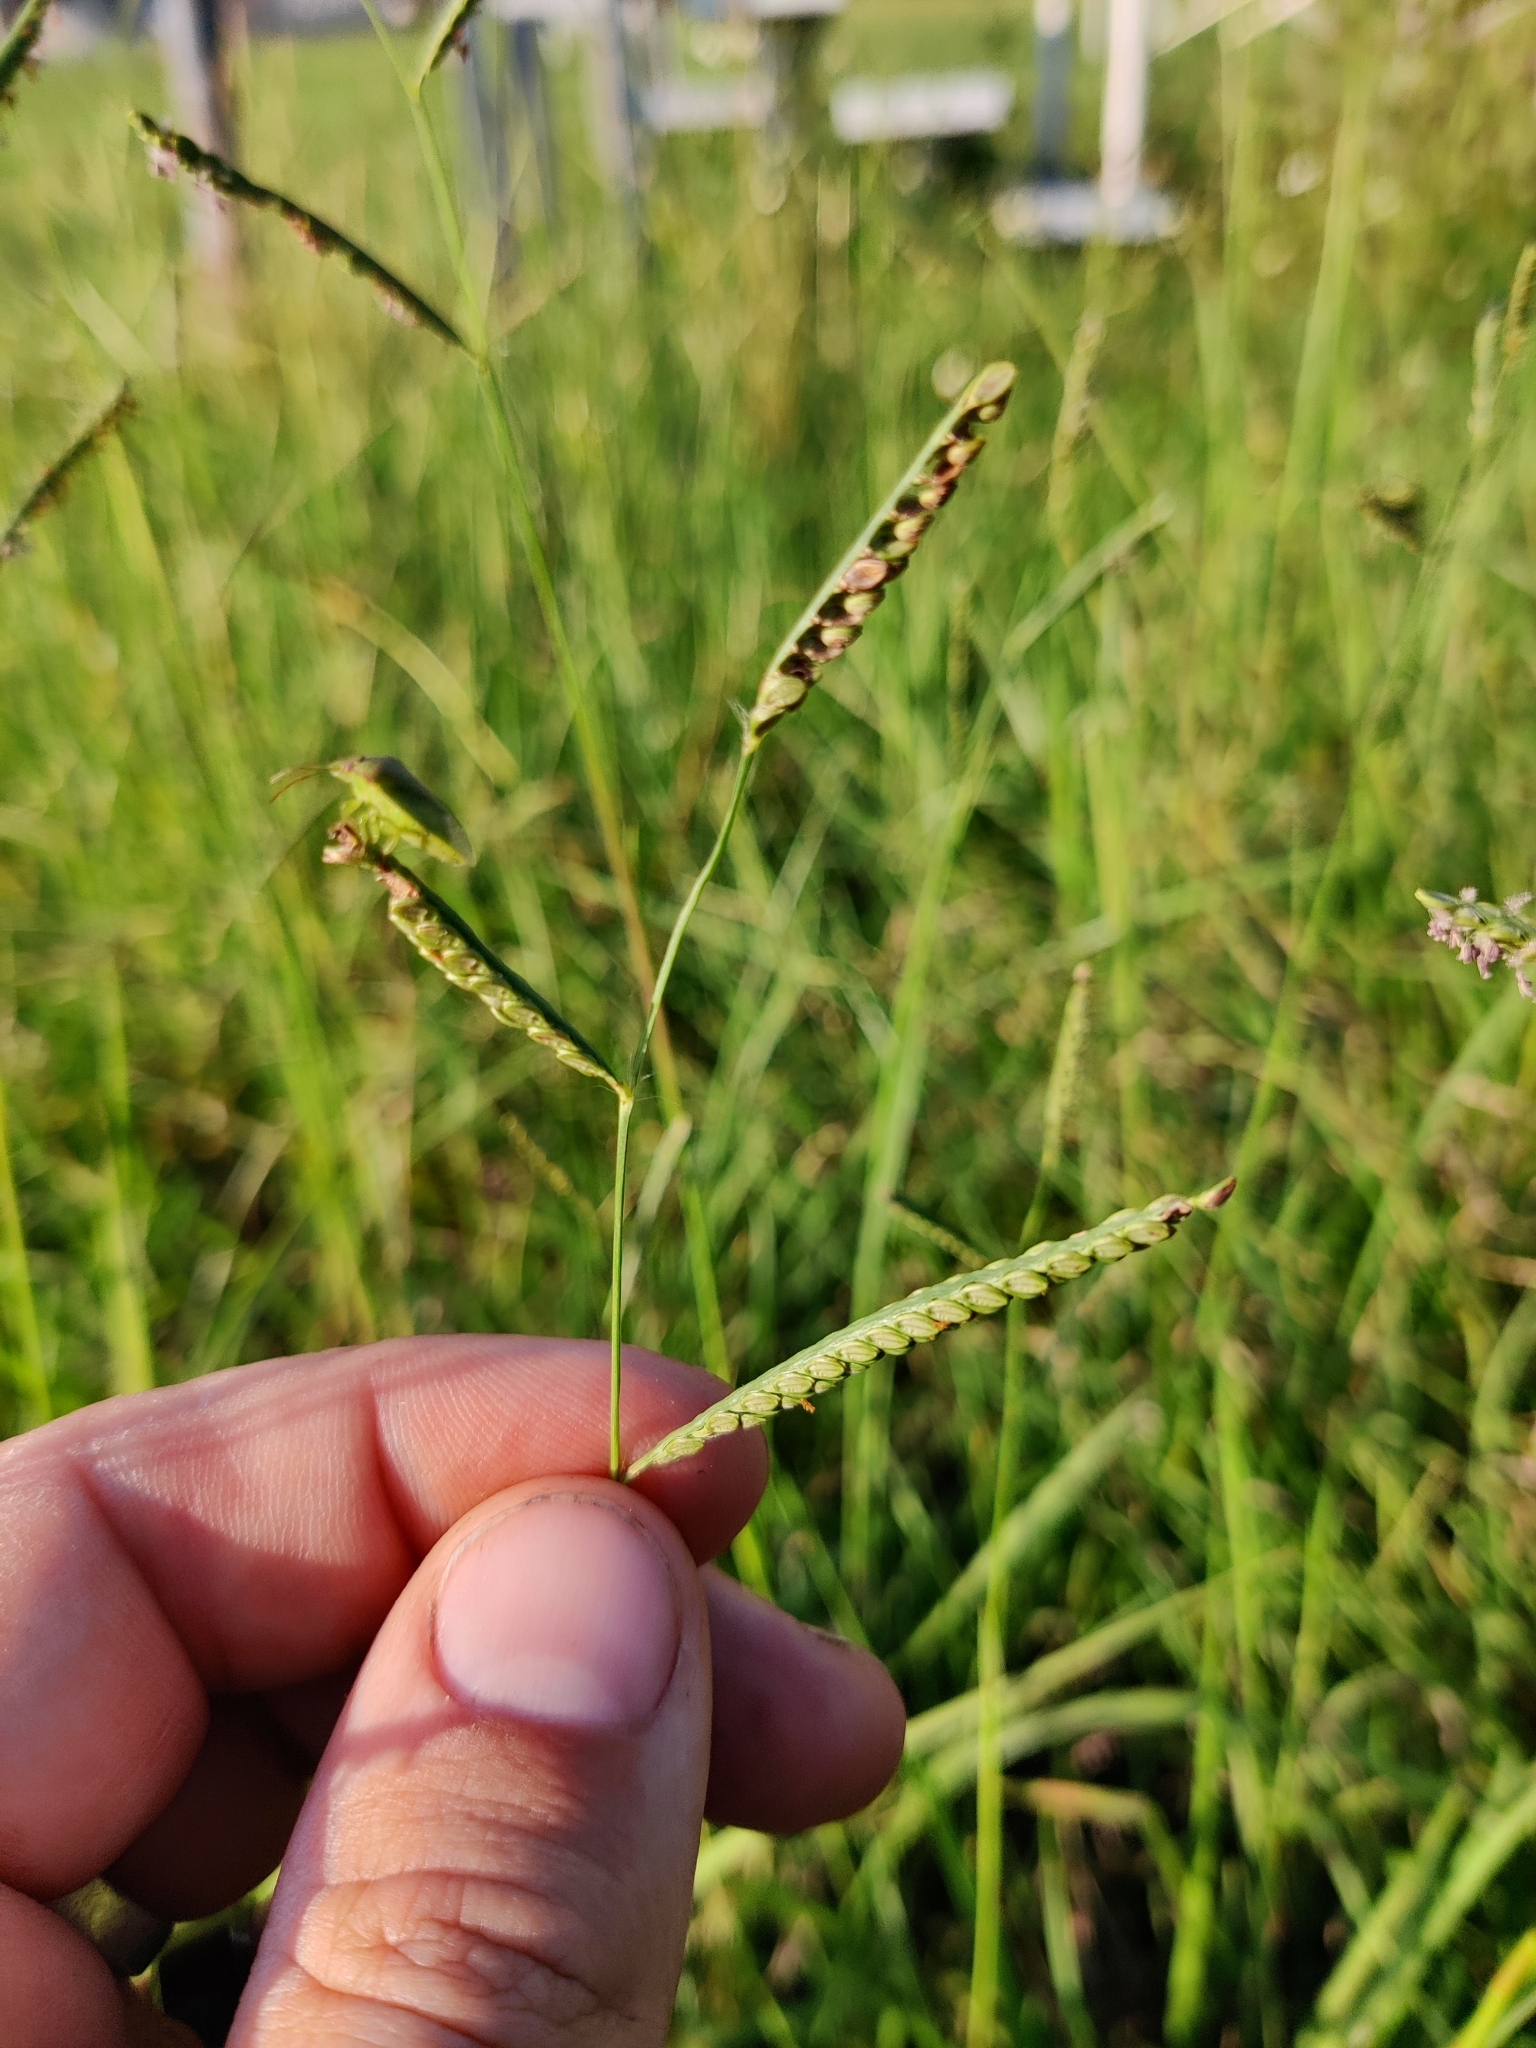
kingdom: Plantae
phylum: Tracheophyta
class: Liliopsida
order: Poales
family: Poaceae
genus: Paspalum
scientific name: Paspalum plicatulum
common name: Top paspalum
